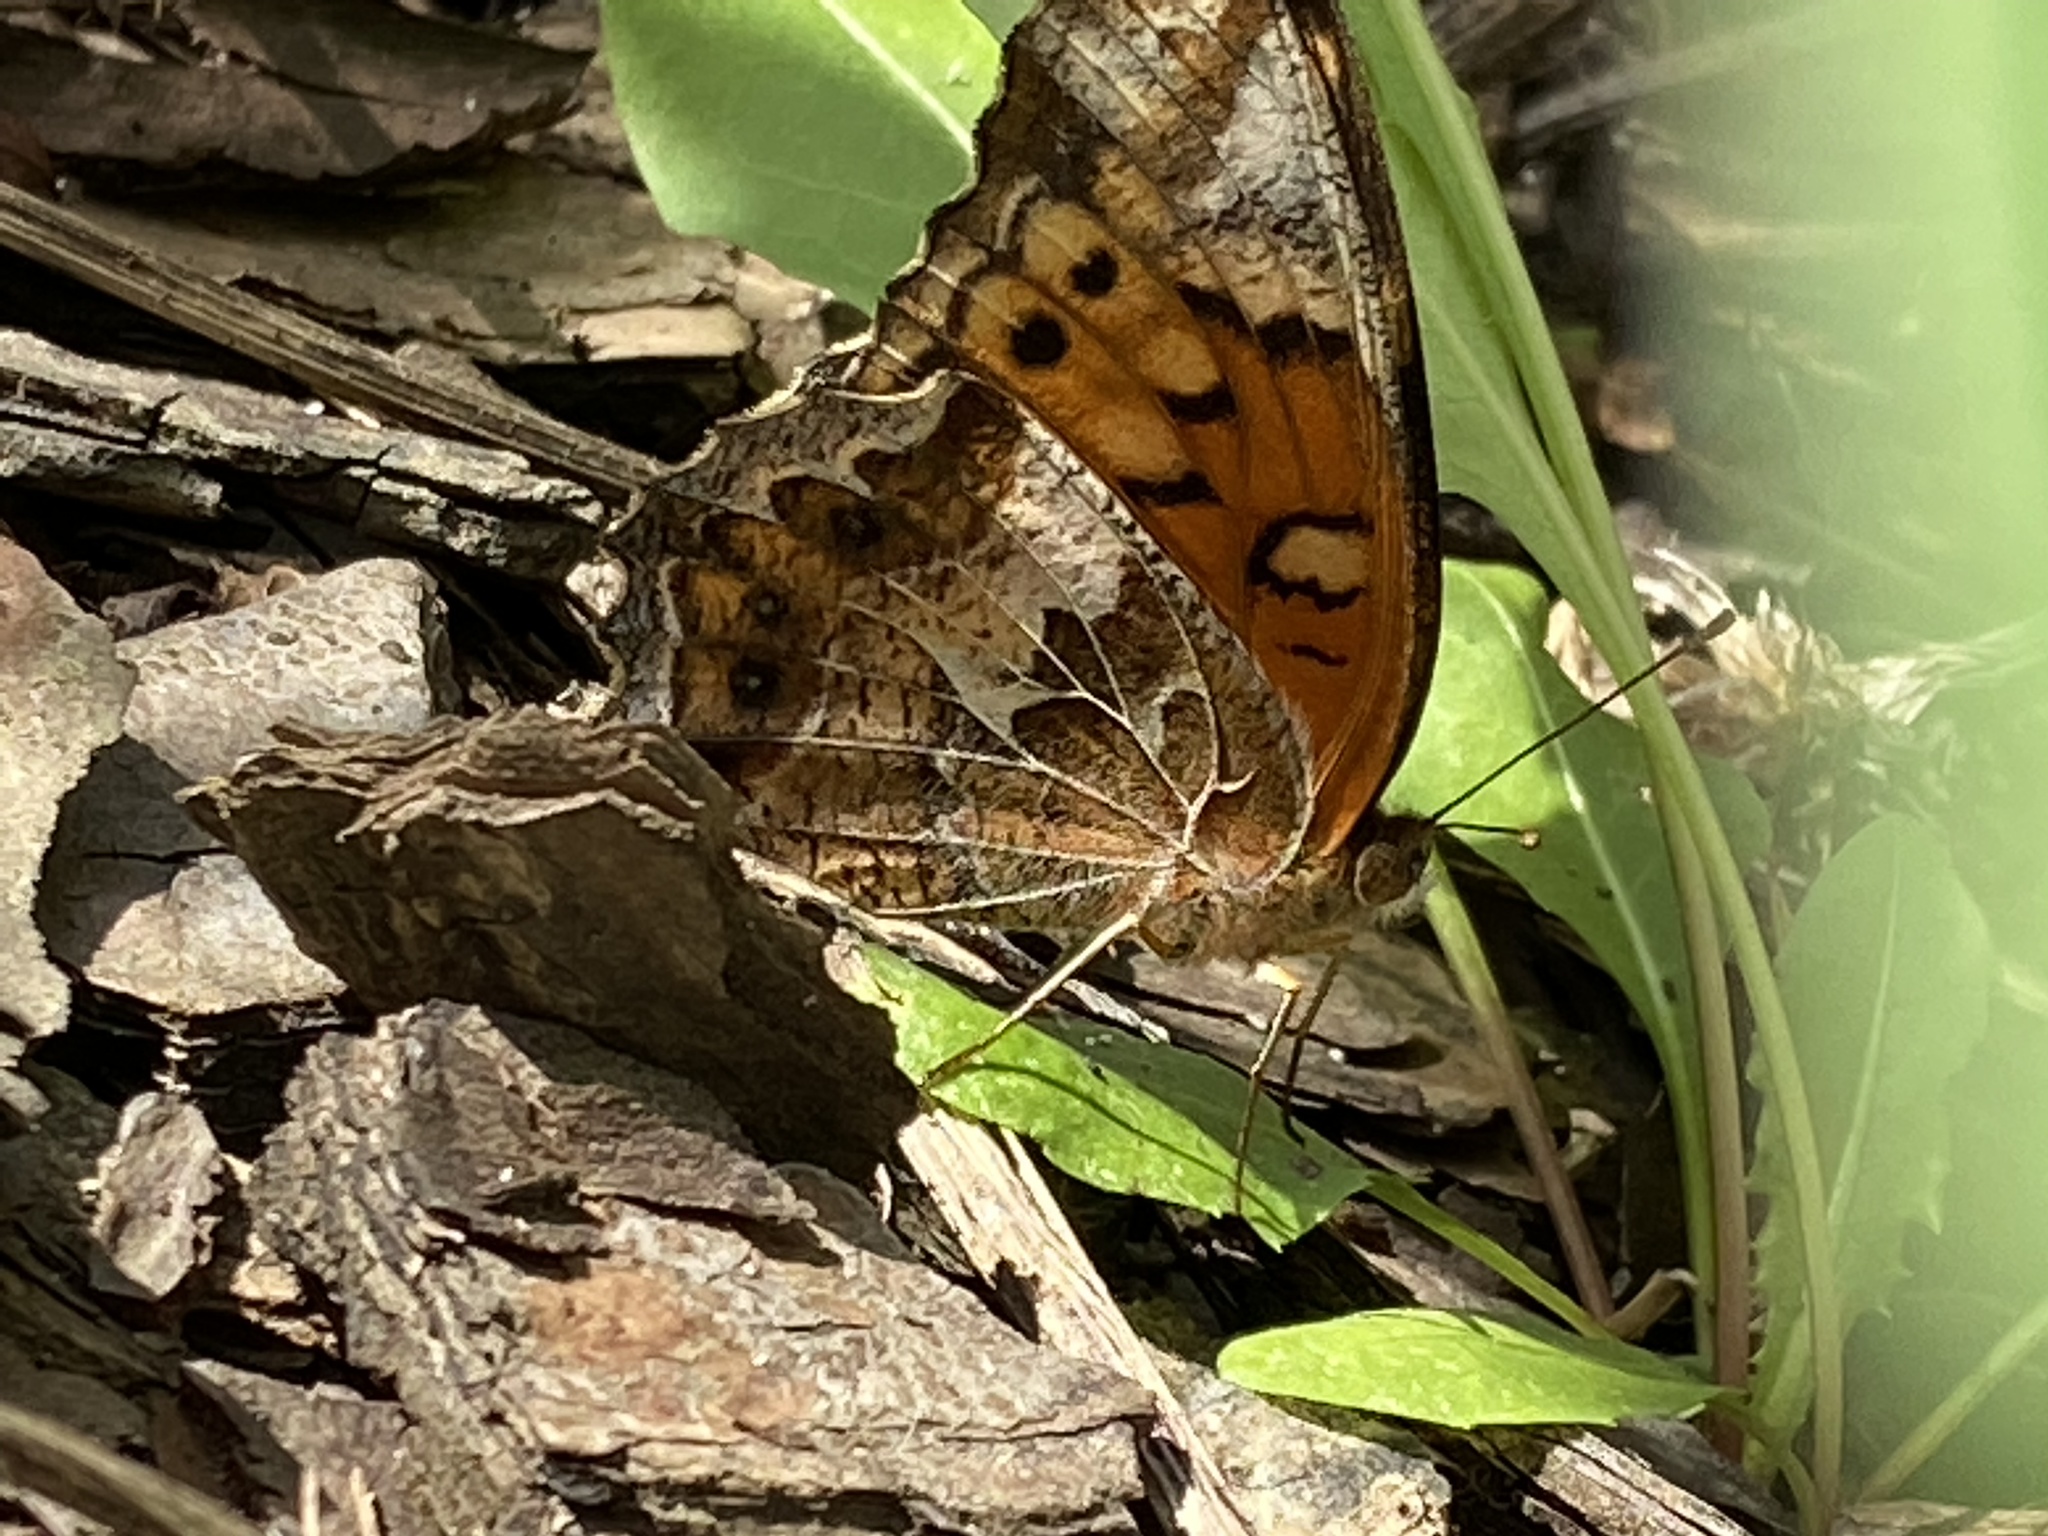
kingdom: Animalia
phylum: Arthropoda
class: Insecta
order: Lepidoptera
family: Nymphalidae
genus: Euptoieta
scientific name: Euptoieta claudia
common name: Variegated fritillary
